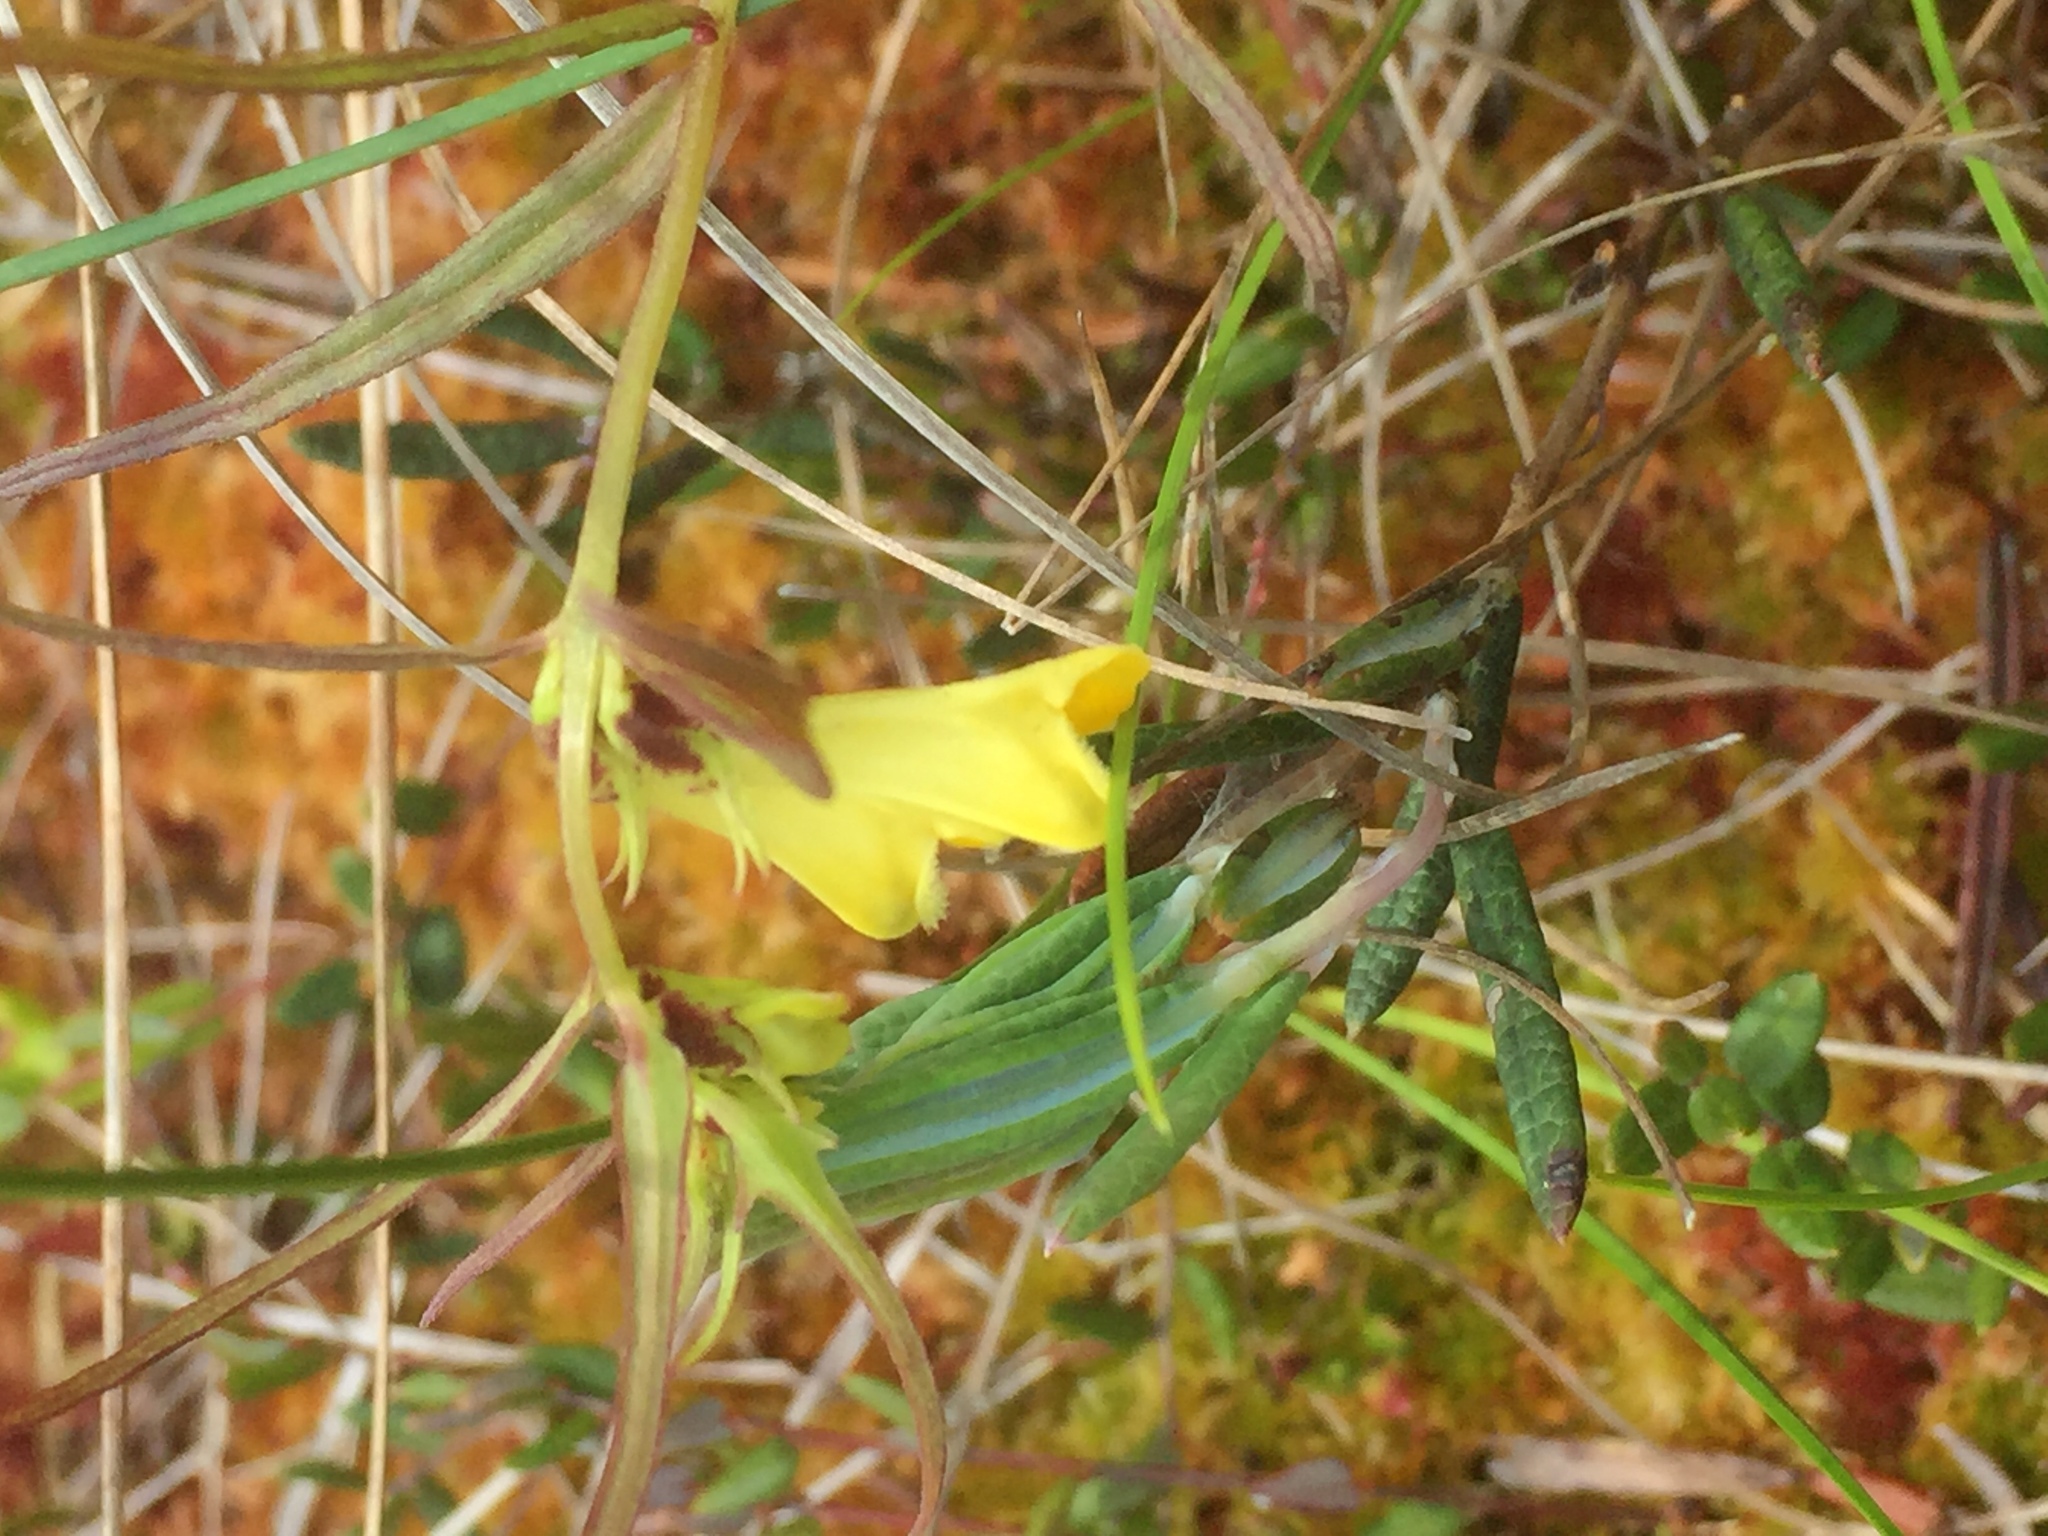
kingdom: Plantae
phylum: Tracheophyta
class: Magnoliopsida
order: Lamiales
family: Orobanchaceae
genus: Melampyrum
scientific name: Melampyrum pratense
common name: Common cow-wheat
